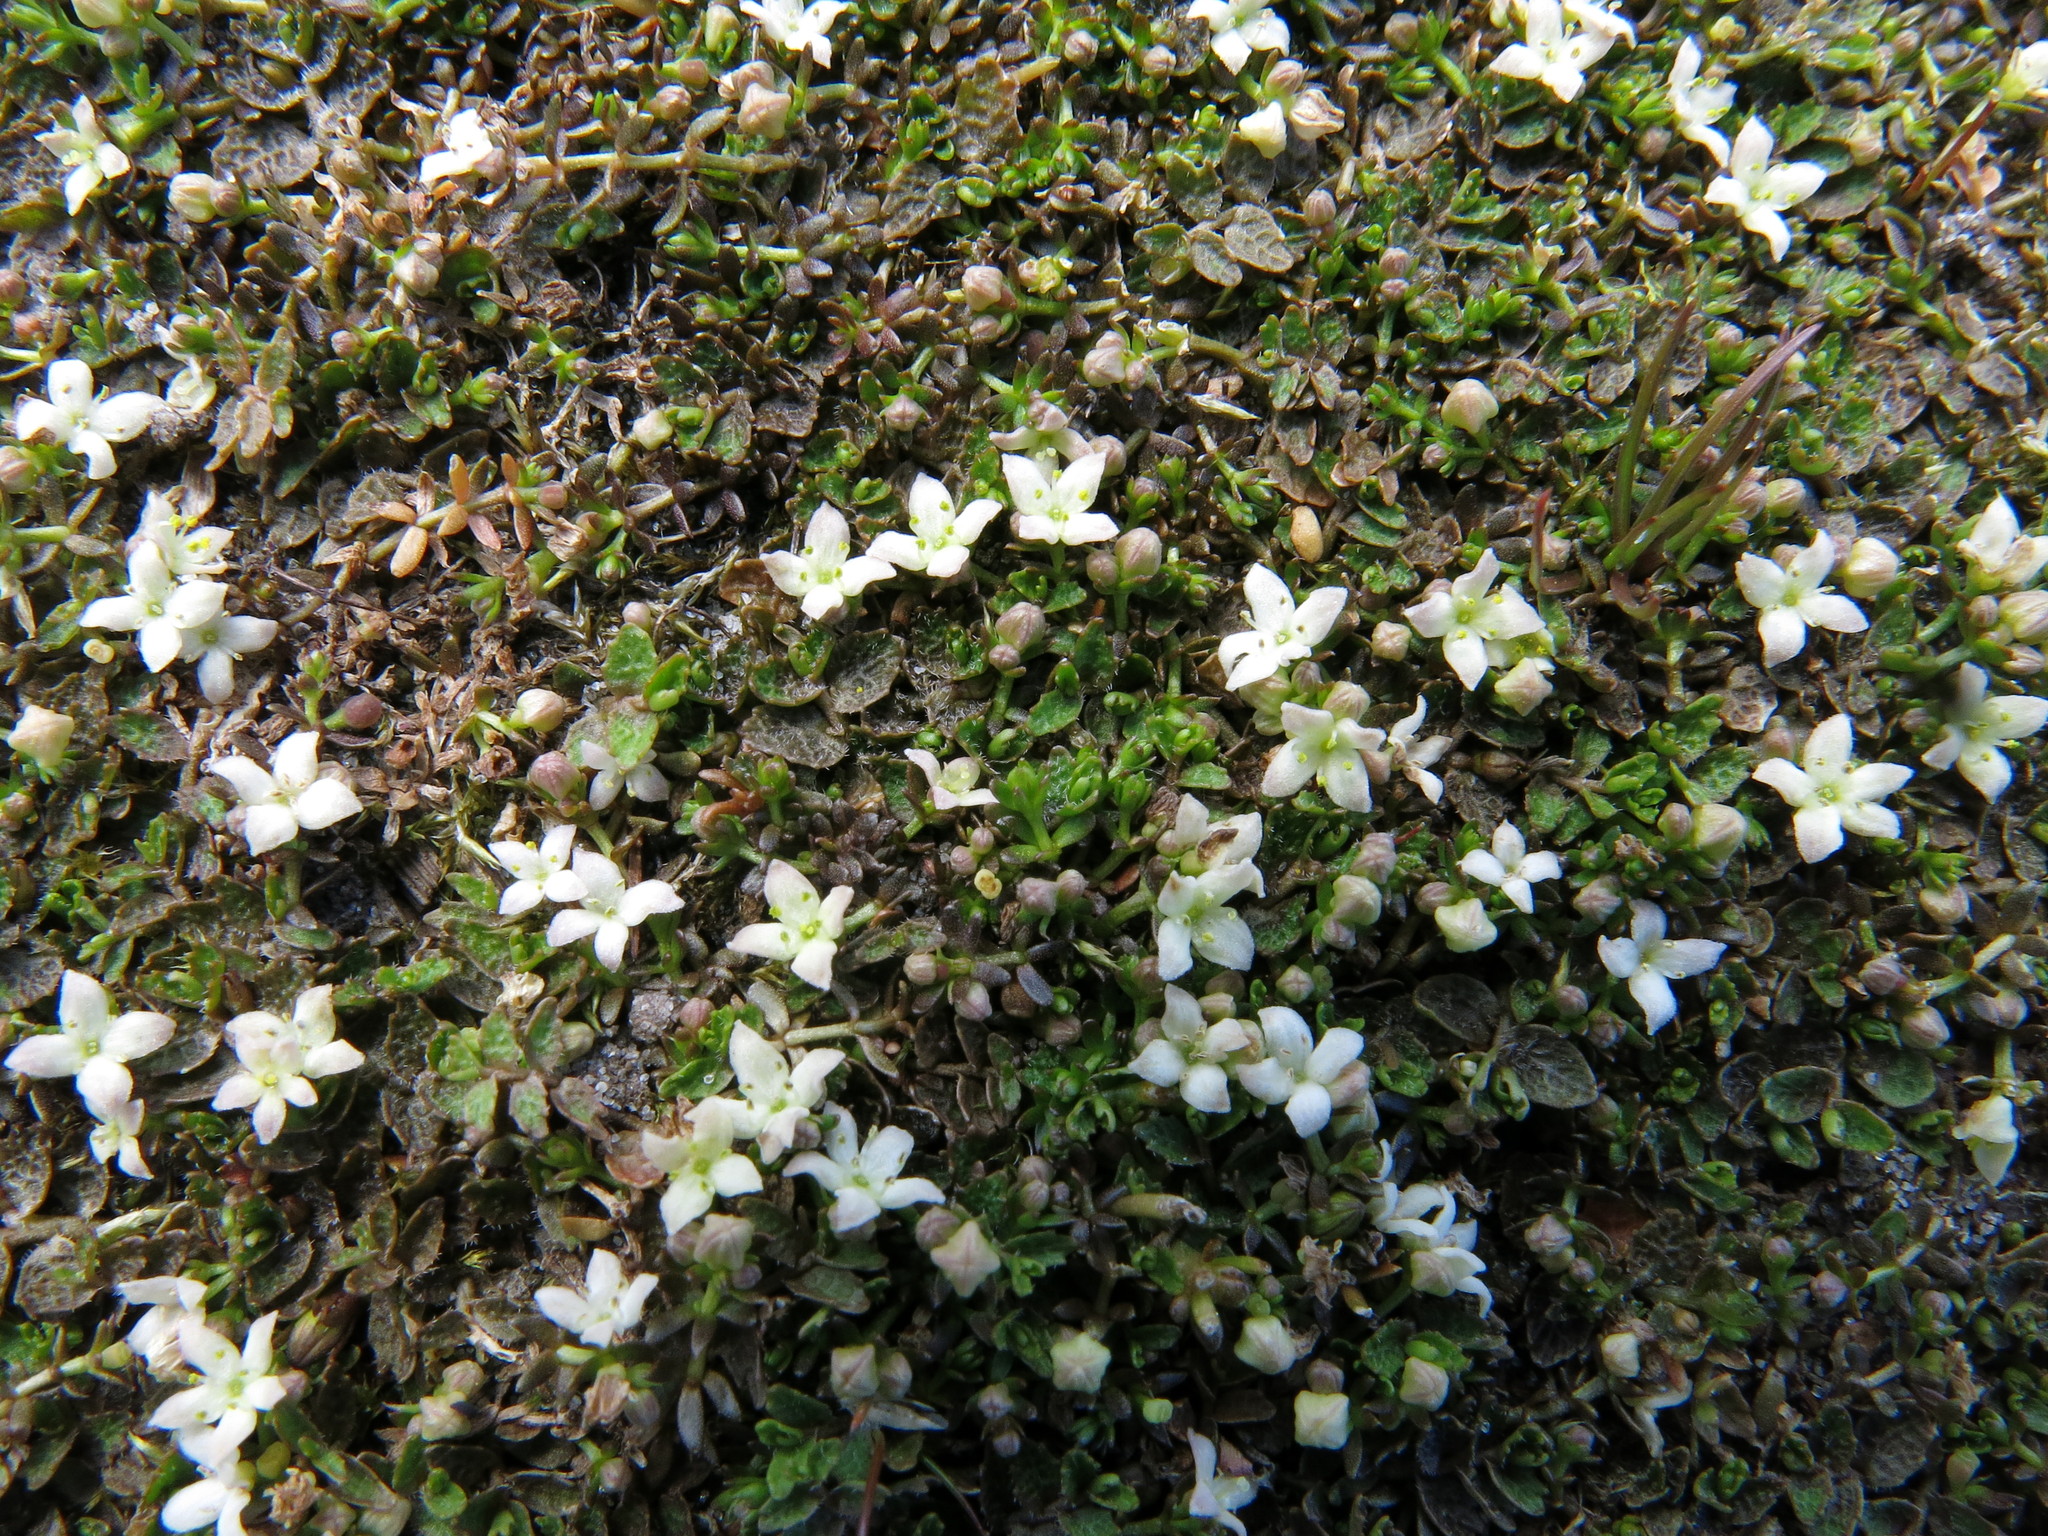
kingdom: Plantae
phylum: Tracheophyta
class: Magnoliopsida
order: Gentianales
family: Rubiaceae
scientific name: Rubiaceae
